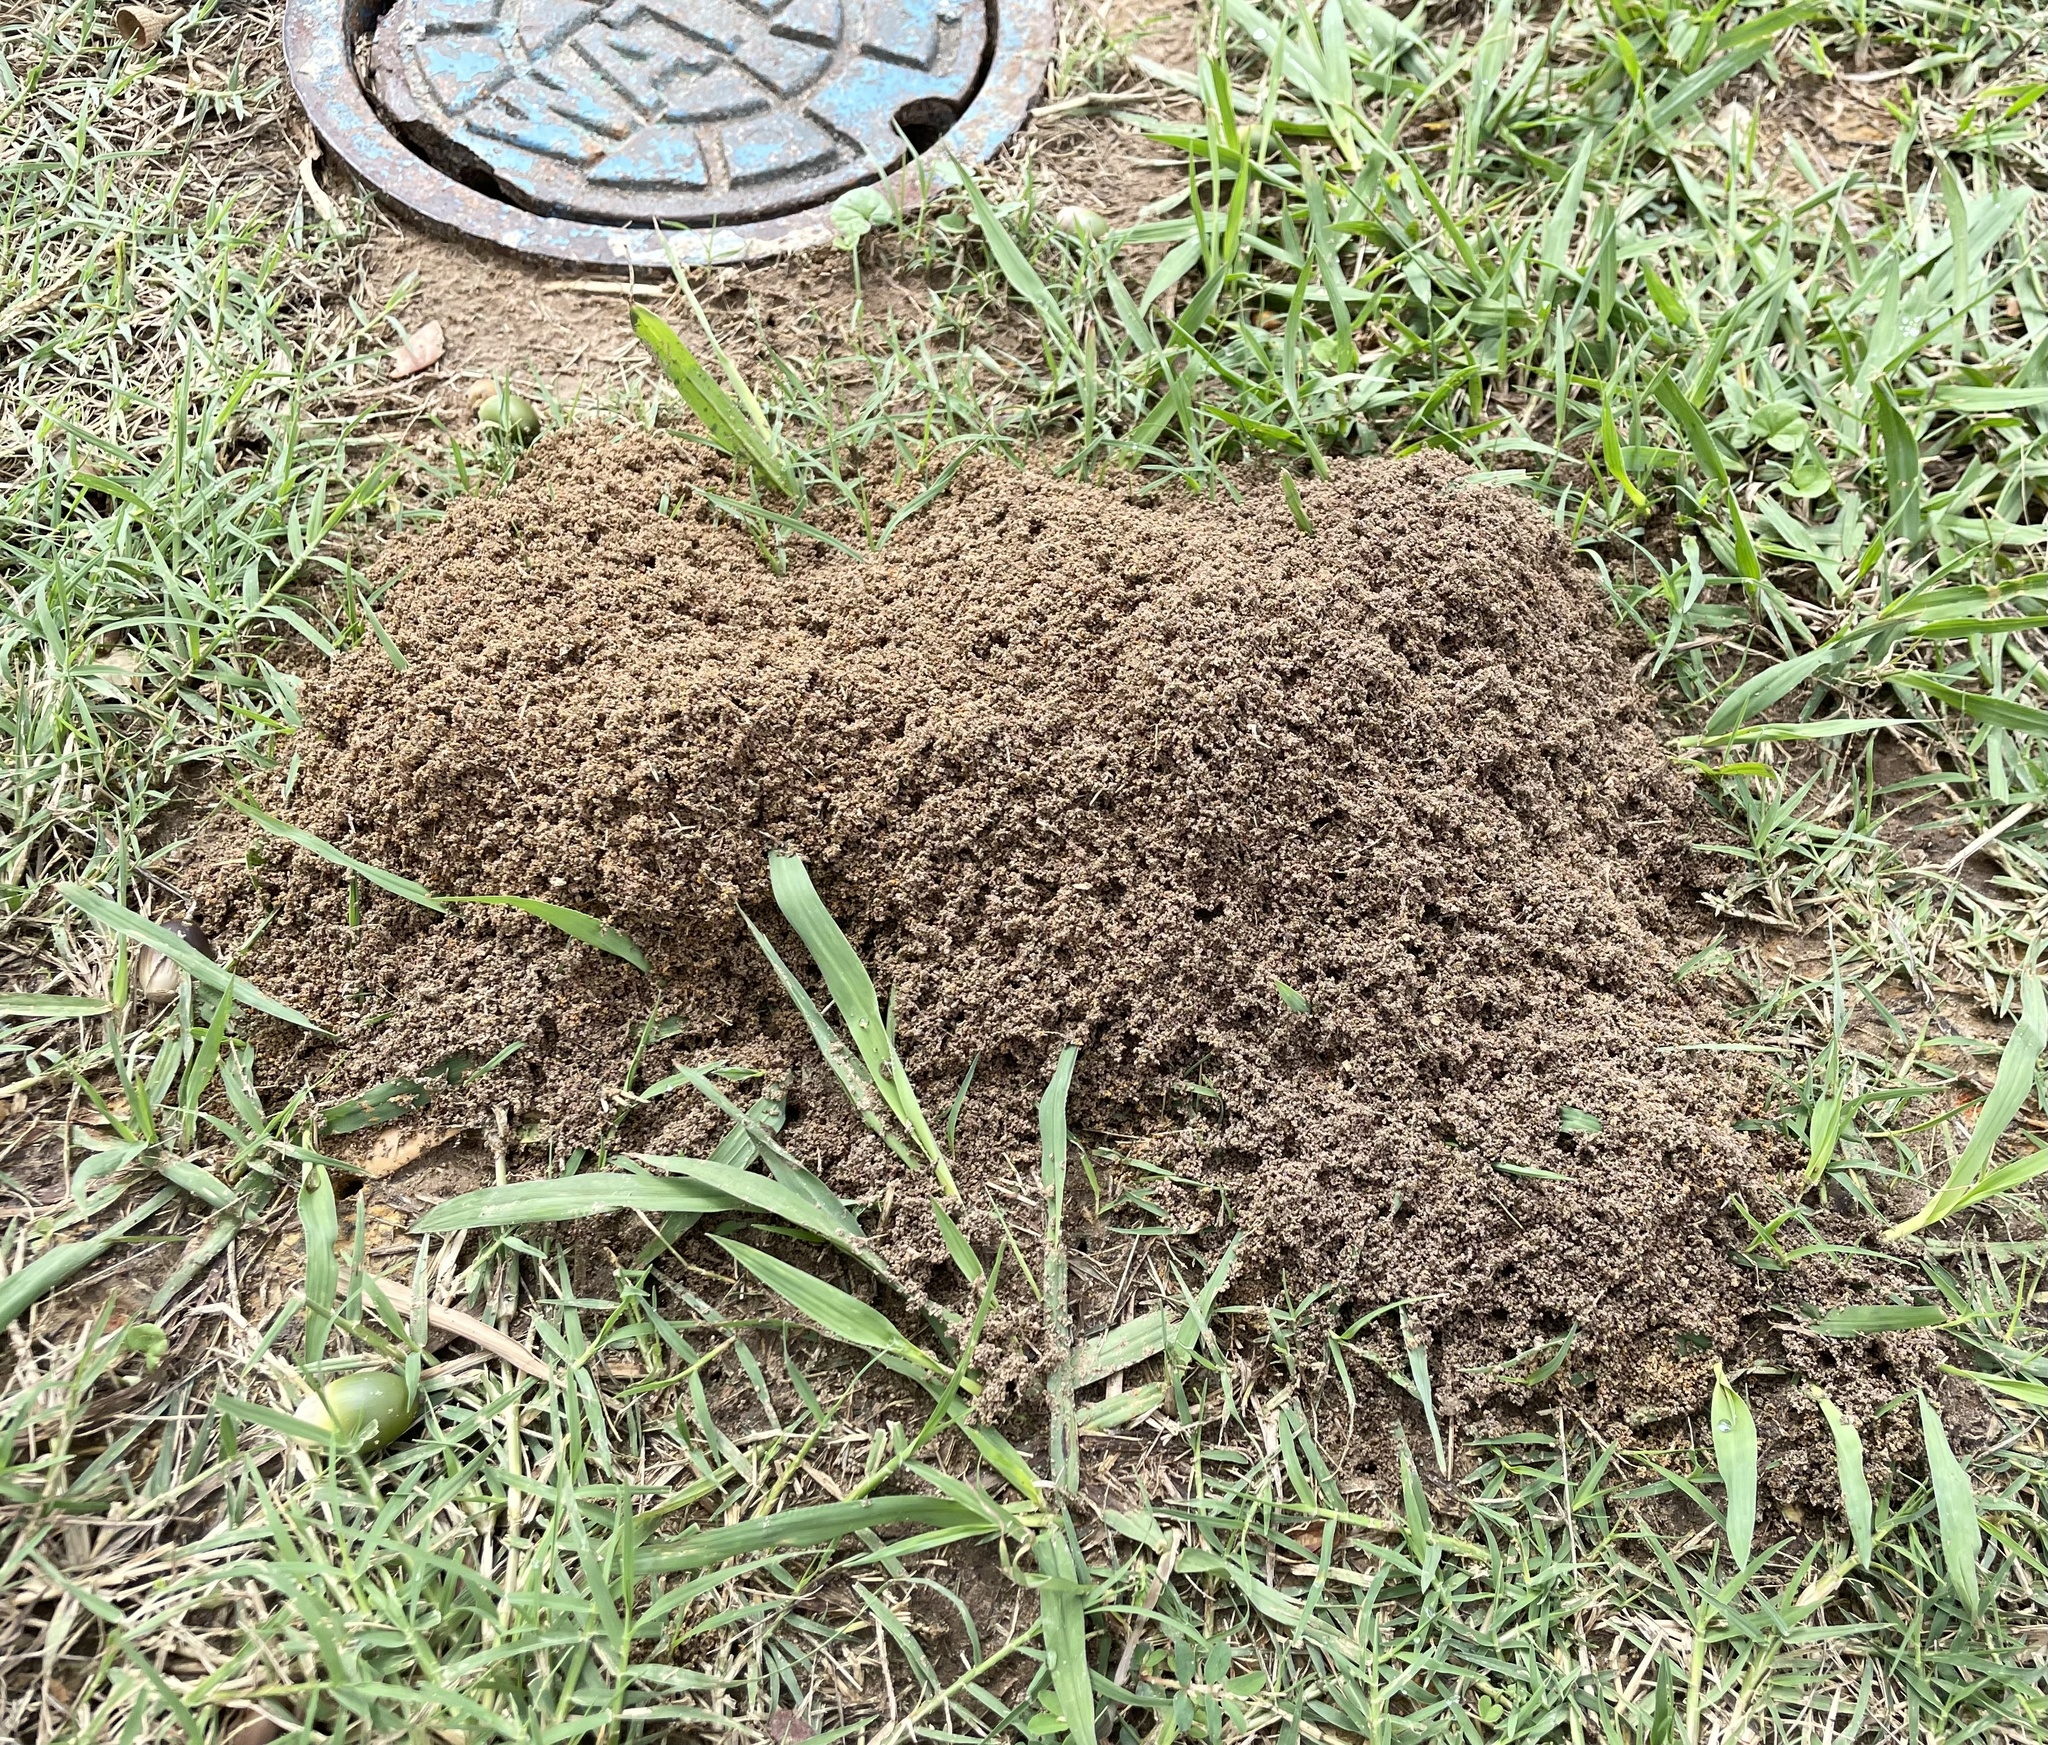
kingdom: Animalia
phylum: Arthropoda
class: Insecta
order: Hymenoptera
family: Formicidae
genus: Solenopsis
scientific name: Solenopsis invicta
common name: Red imported fire ant
